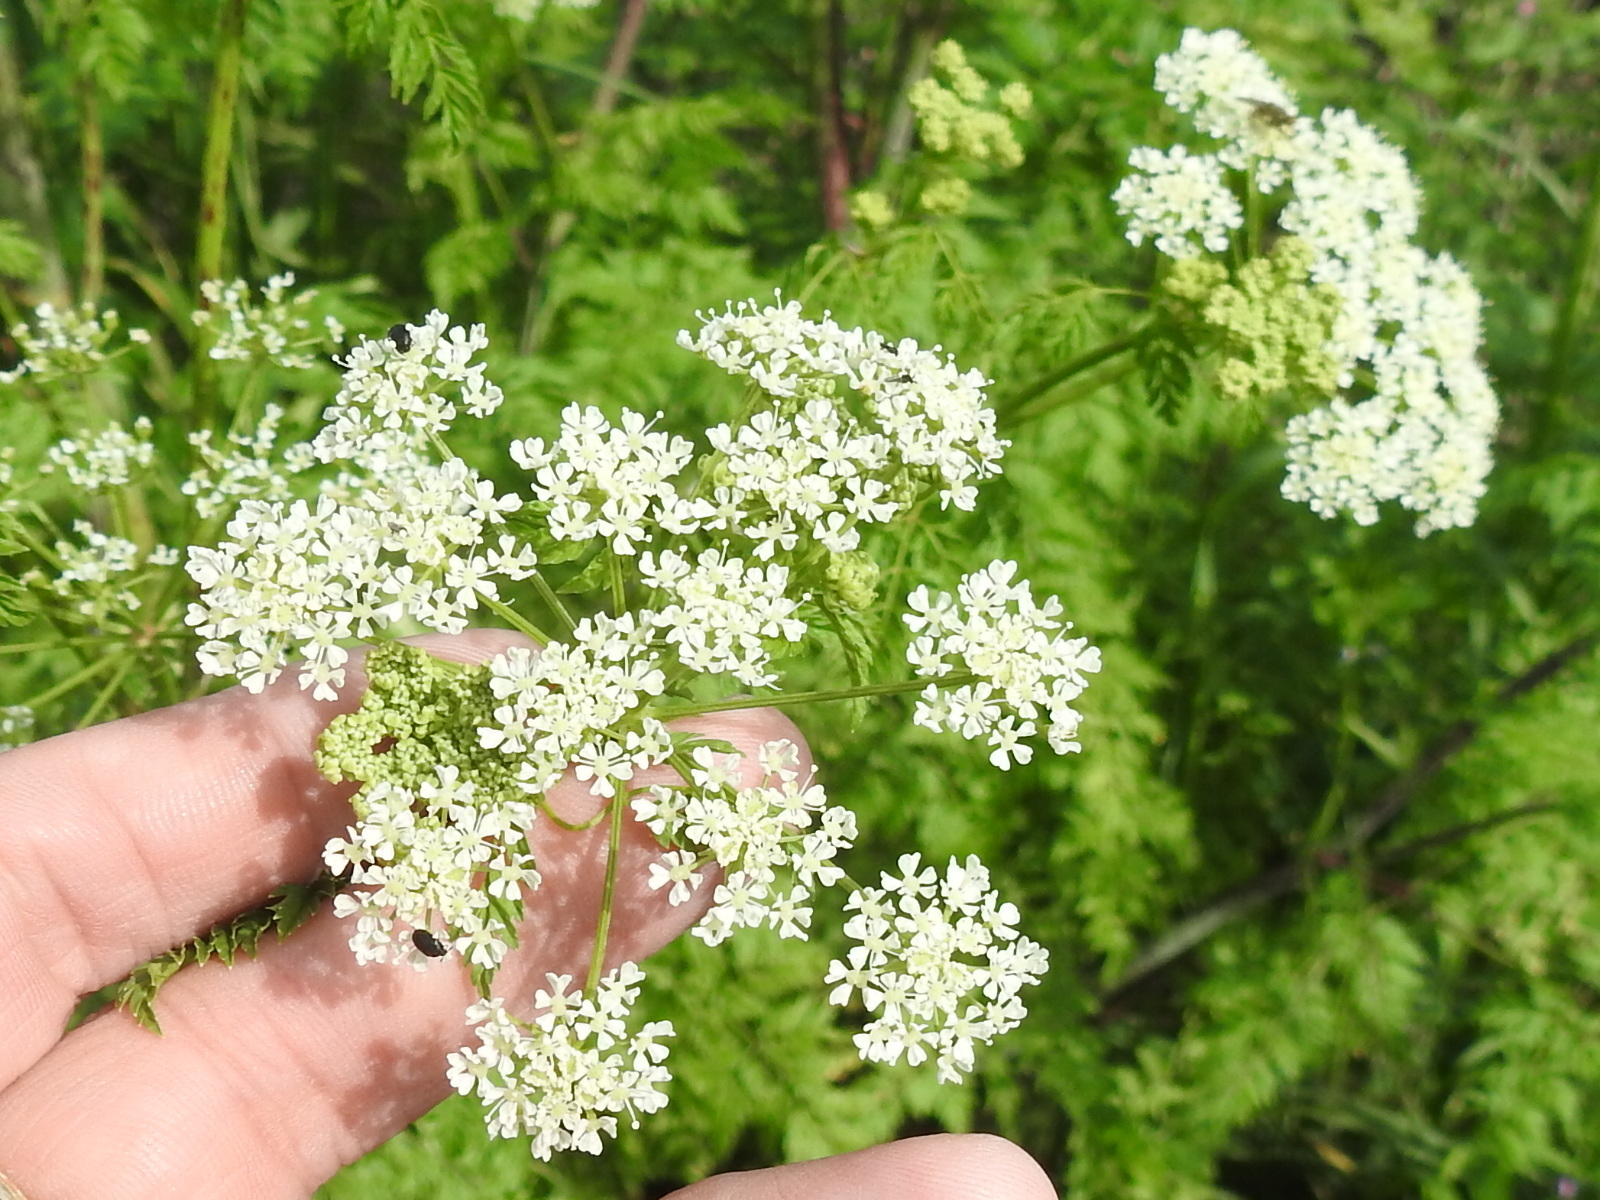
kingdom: Plantae
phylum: Tracheophyta
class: Magnoliopsida
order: Apiales
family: Apiaceae
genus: Conium
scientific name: Conium maculatum
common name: Hemlock
